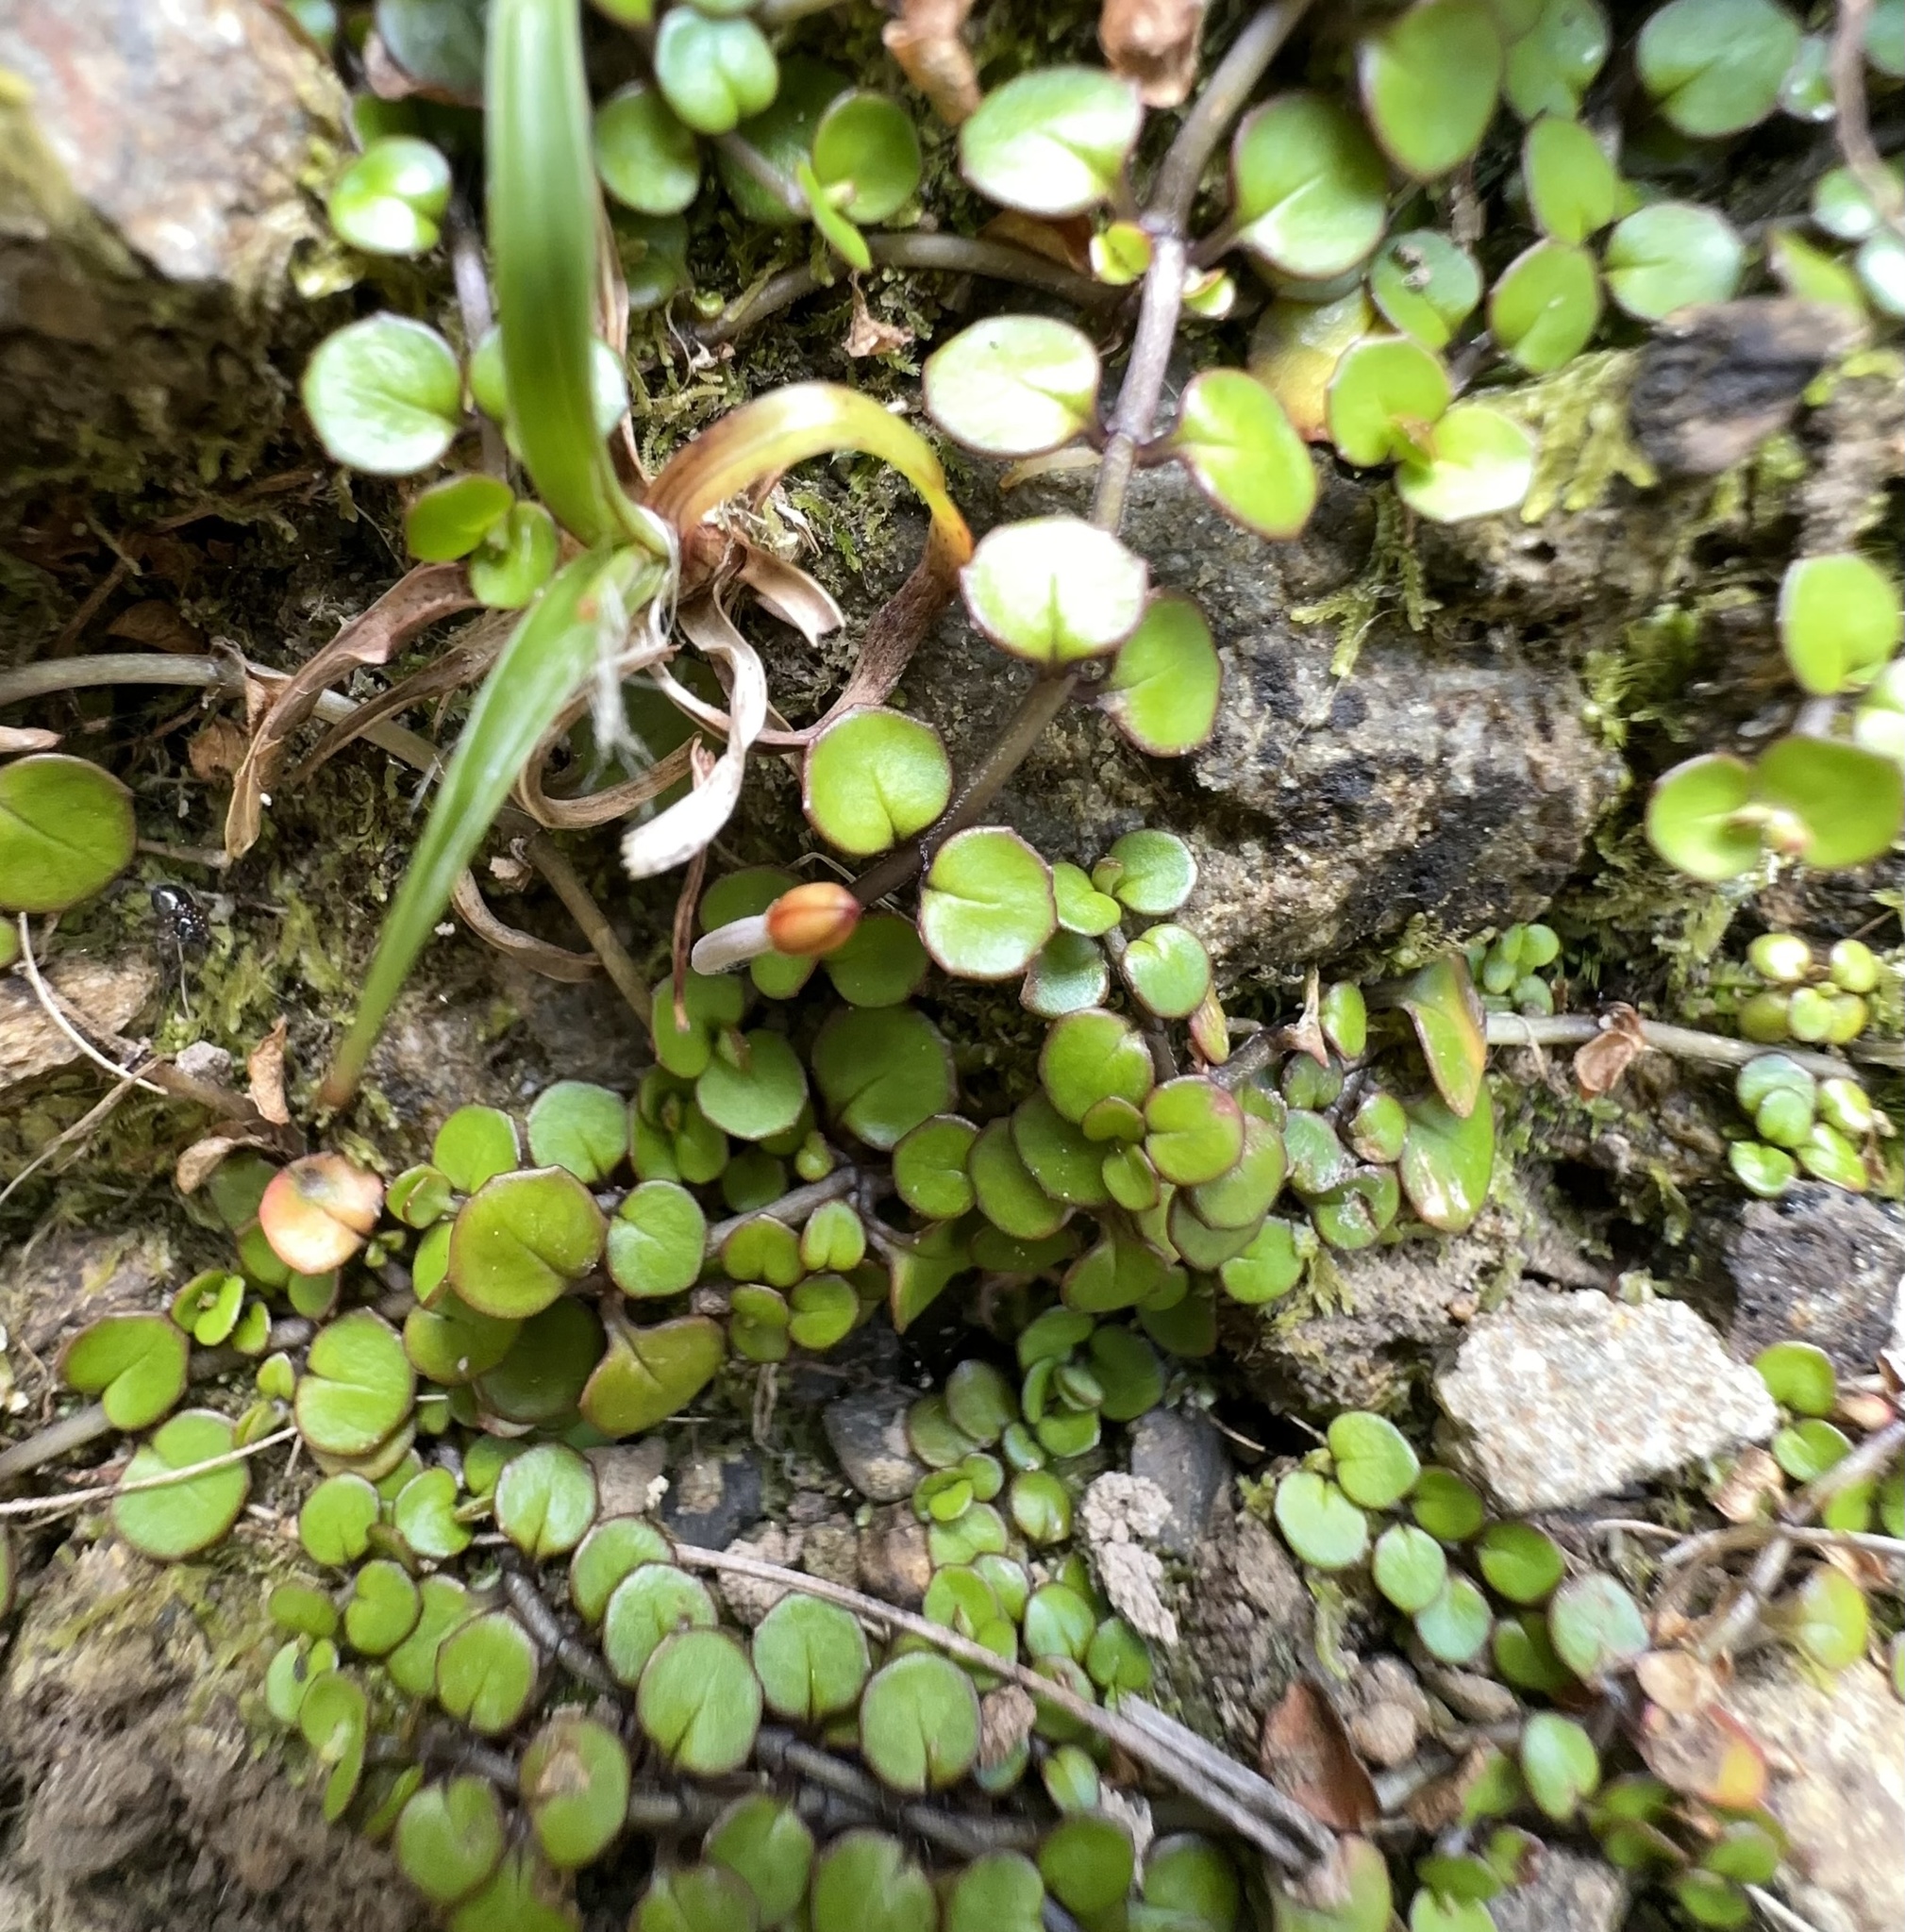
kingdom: Plantae
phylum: Tracheophyta
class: Magnoliopsida
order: Myrtales
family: Onagraceae
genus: Epilobium
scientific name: Epilobium nummularifolium
